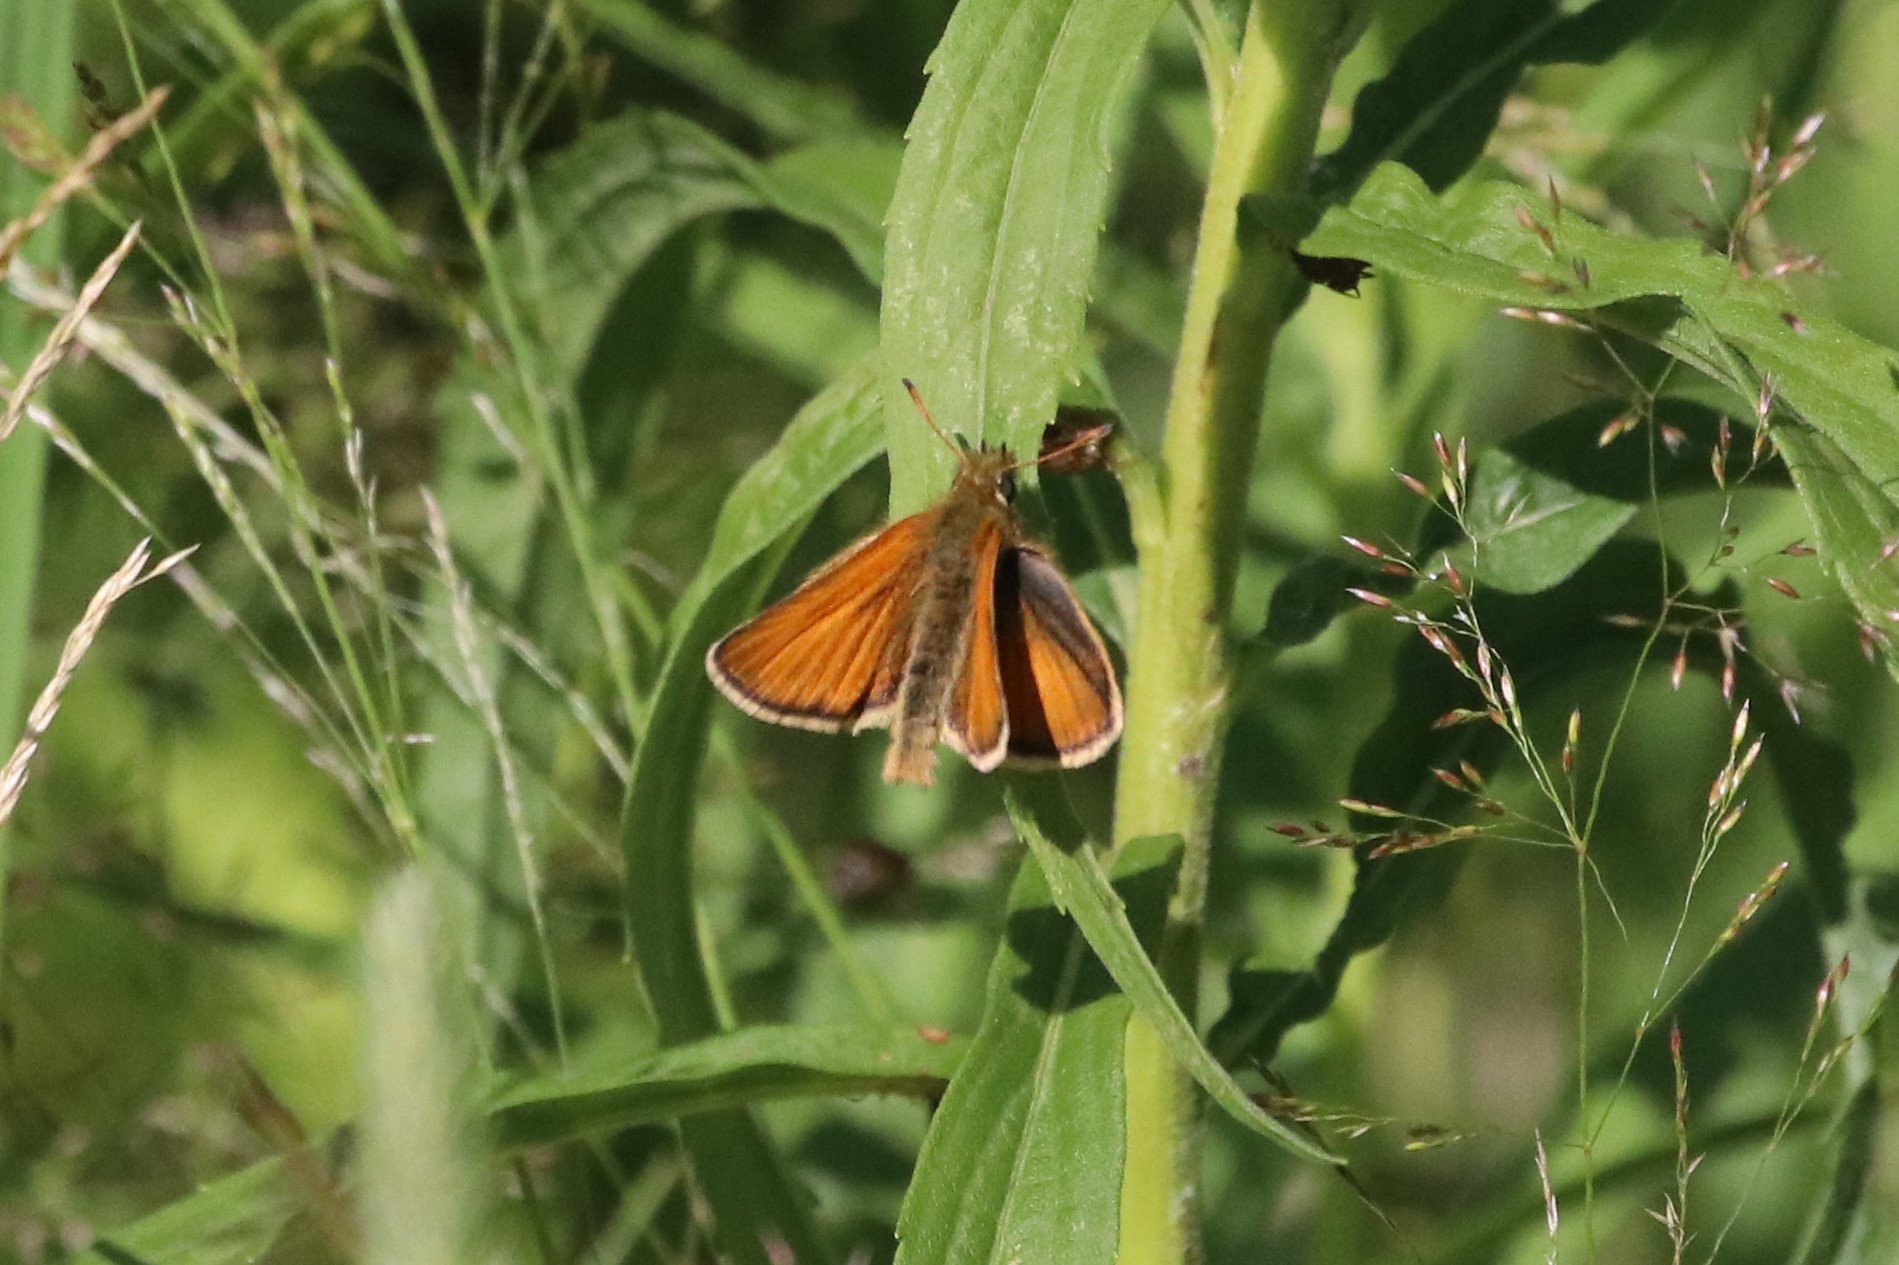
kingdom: Animalia
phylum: Arthropoda
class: Insecta
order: Lepidoptera
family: Hesperiidae
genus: Thymelicus
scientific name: Thymelicus lineola
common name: Essex skipper
